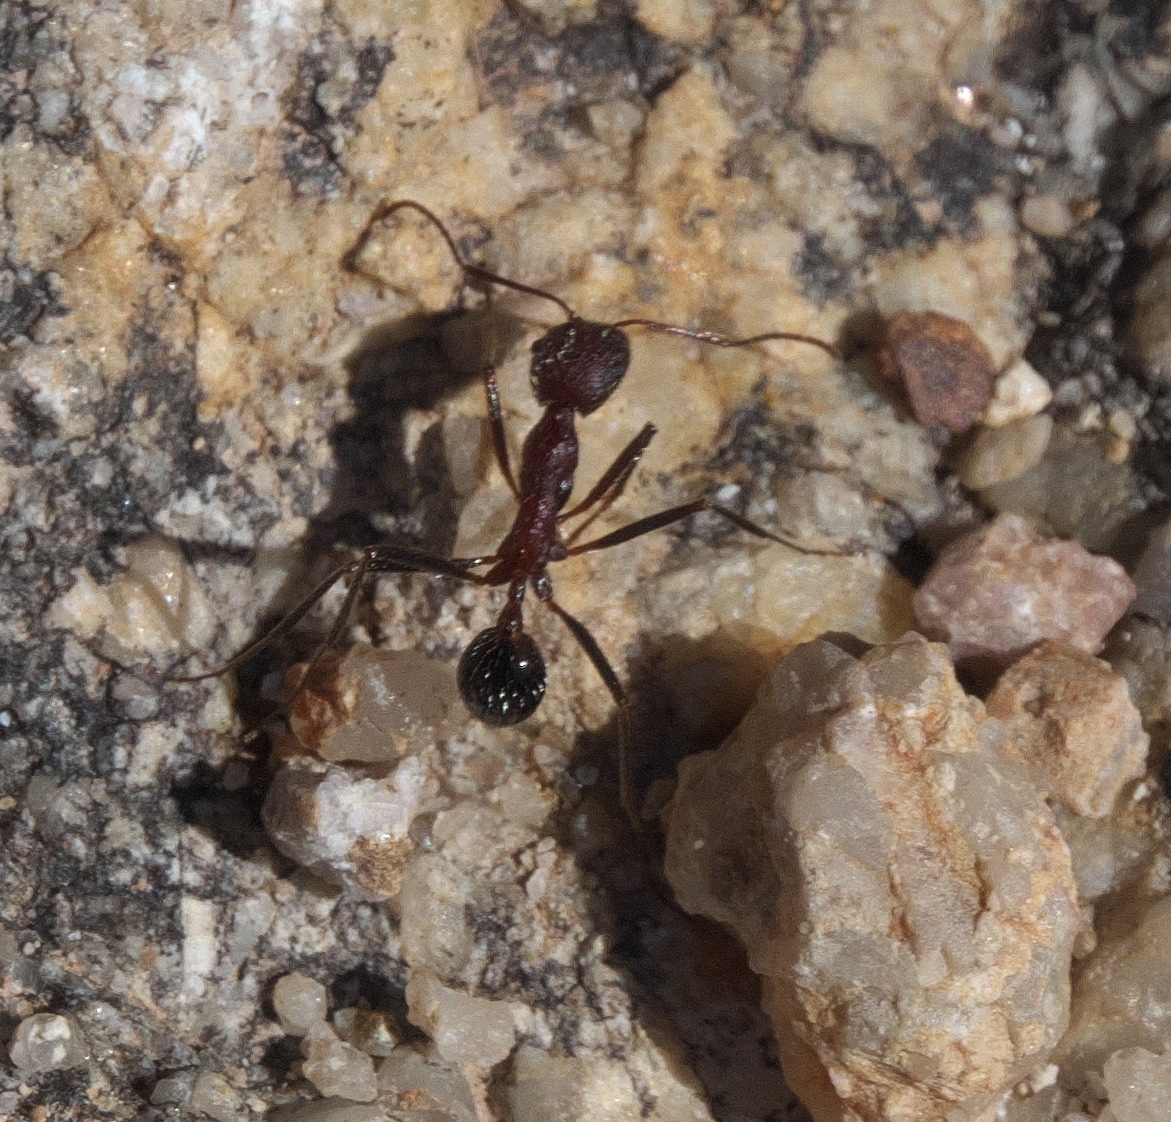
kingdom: Animalia
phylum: Arthropoda
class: Insecta
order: Hymenoptera
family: Formicidae
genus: Novomessor
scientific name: Novomessor albisetosa
